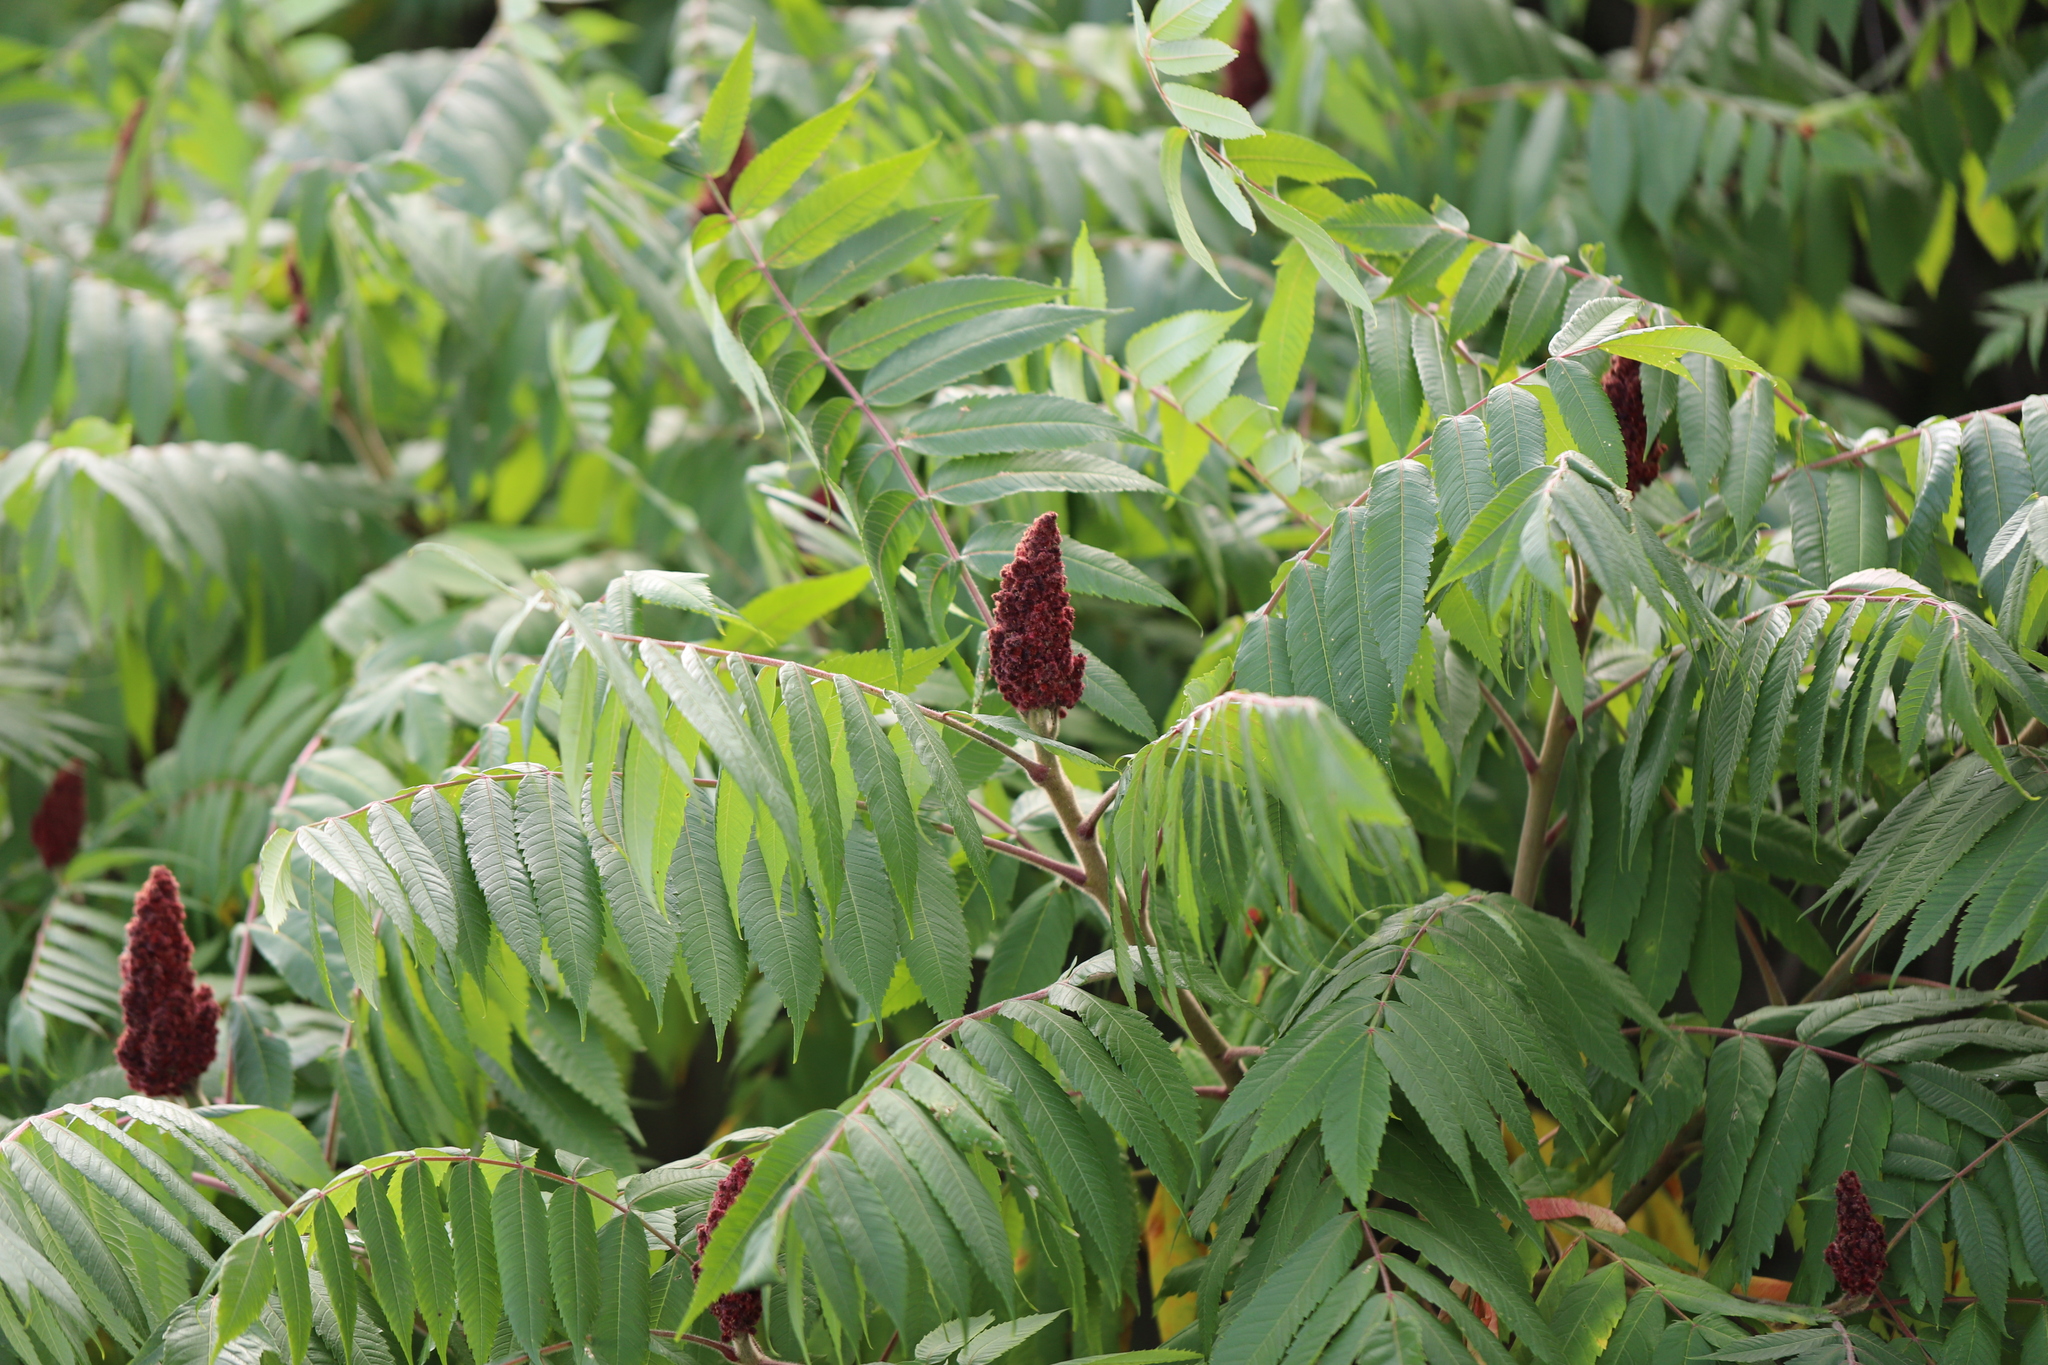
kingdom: Plantae
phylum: Tracheophyta
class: Magnoliopsida
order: Sapindales
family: Anacardiaceae
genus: Rhus
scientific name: Rhus glabra
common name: Scarlet sumac
